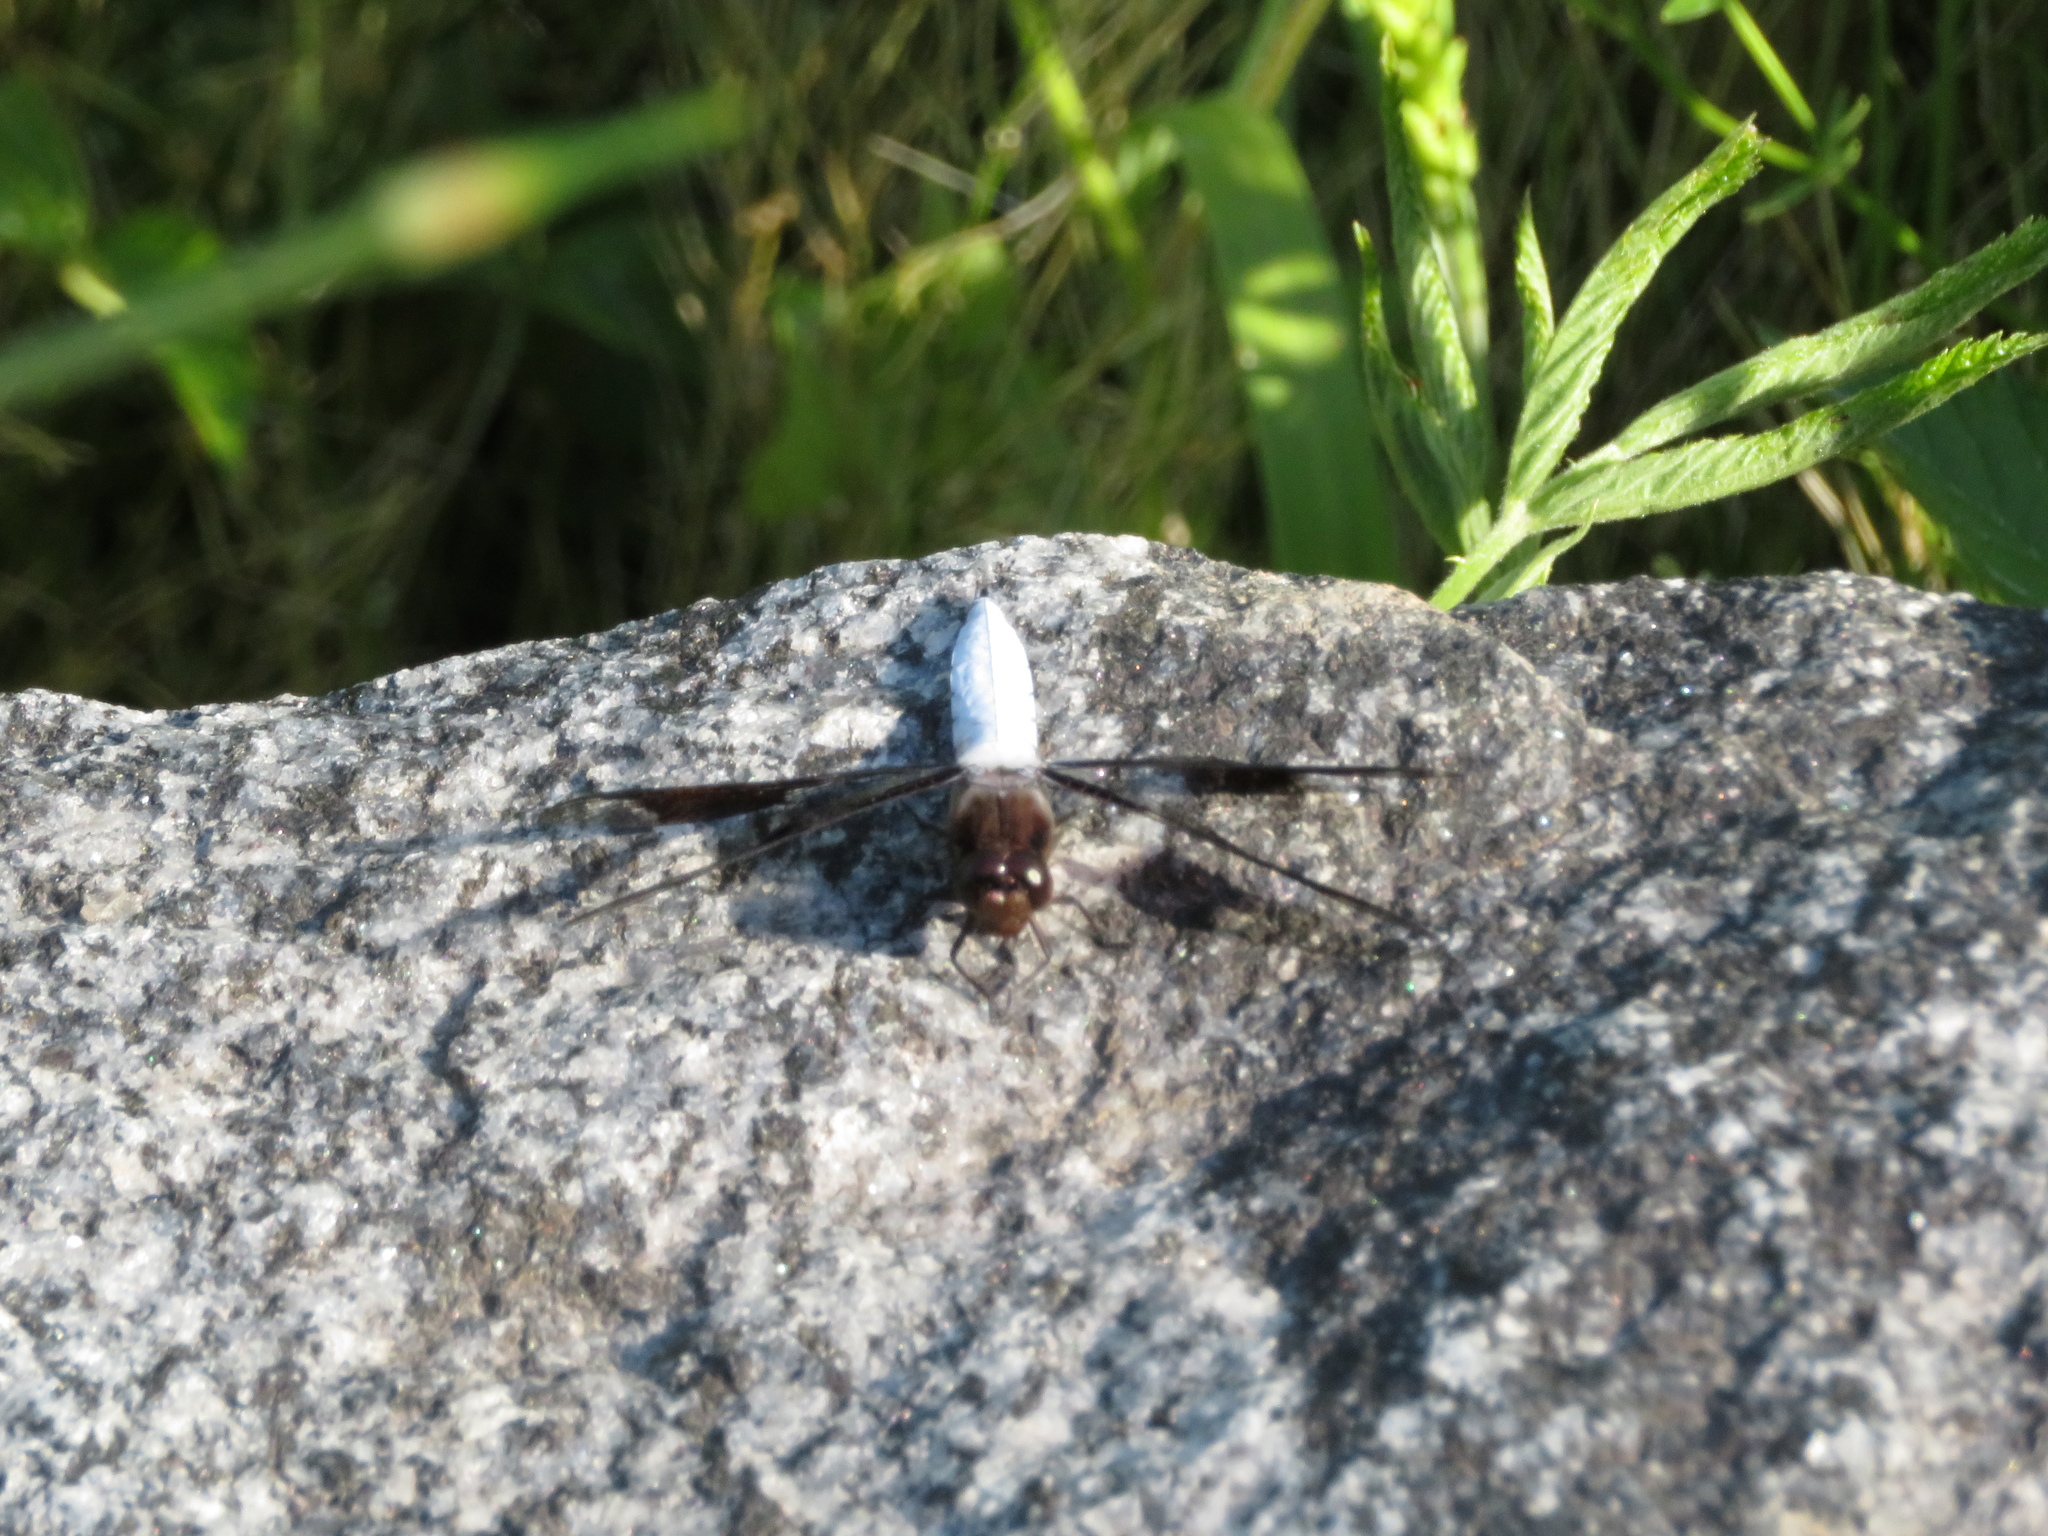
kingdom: Animalia
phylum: Arthropoda
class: Insecta
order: Odonata
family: Libellulidae
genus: Plathemis
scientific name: Plathemis lydia
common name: Common whitetail
